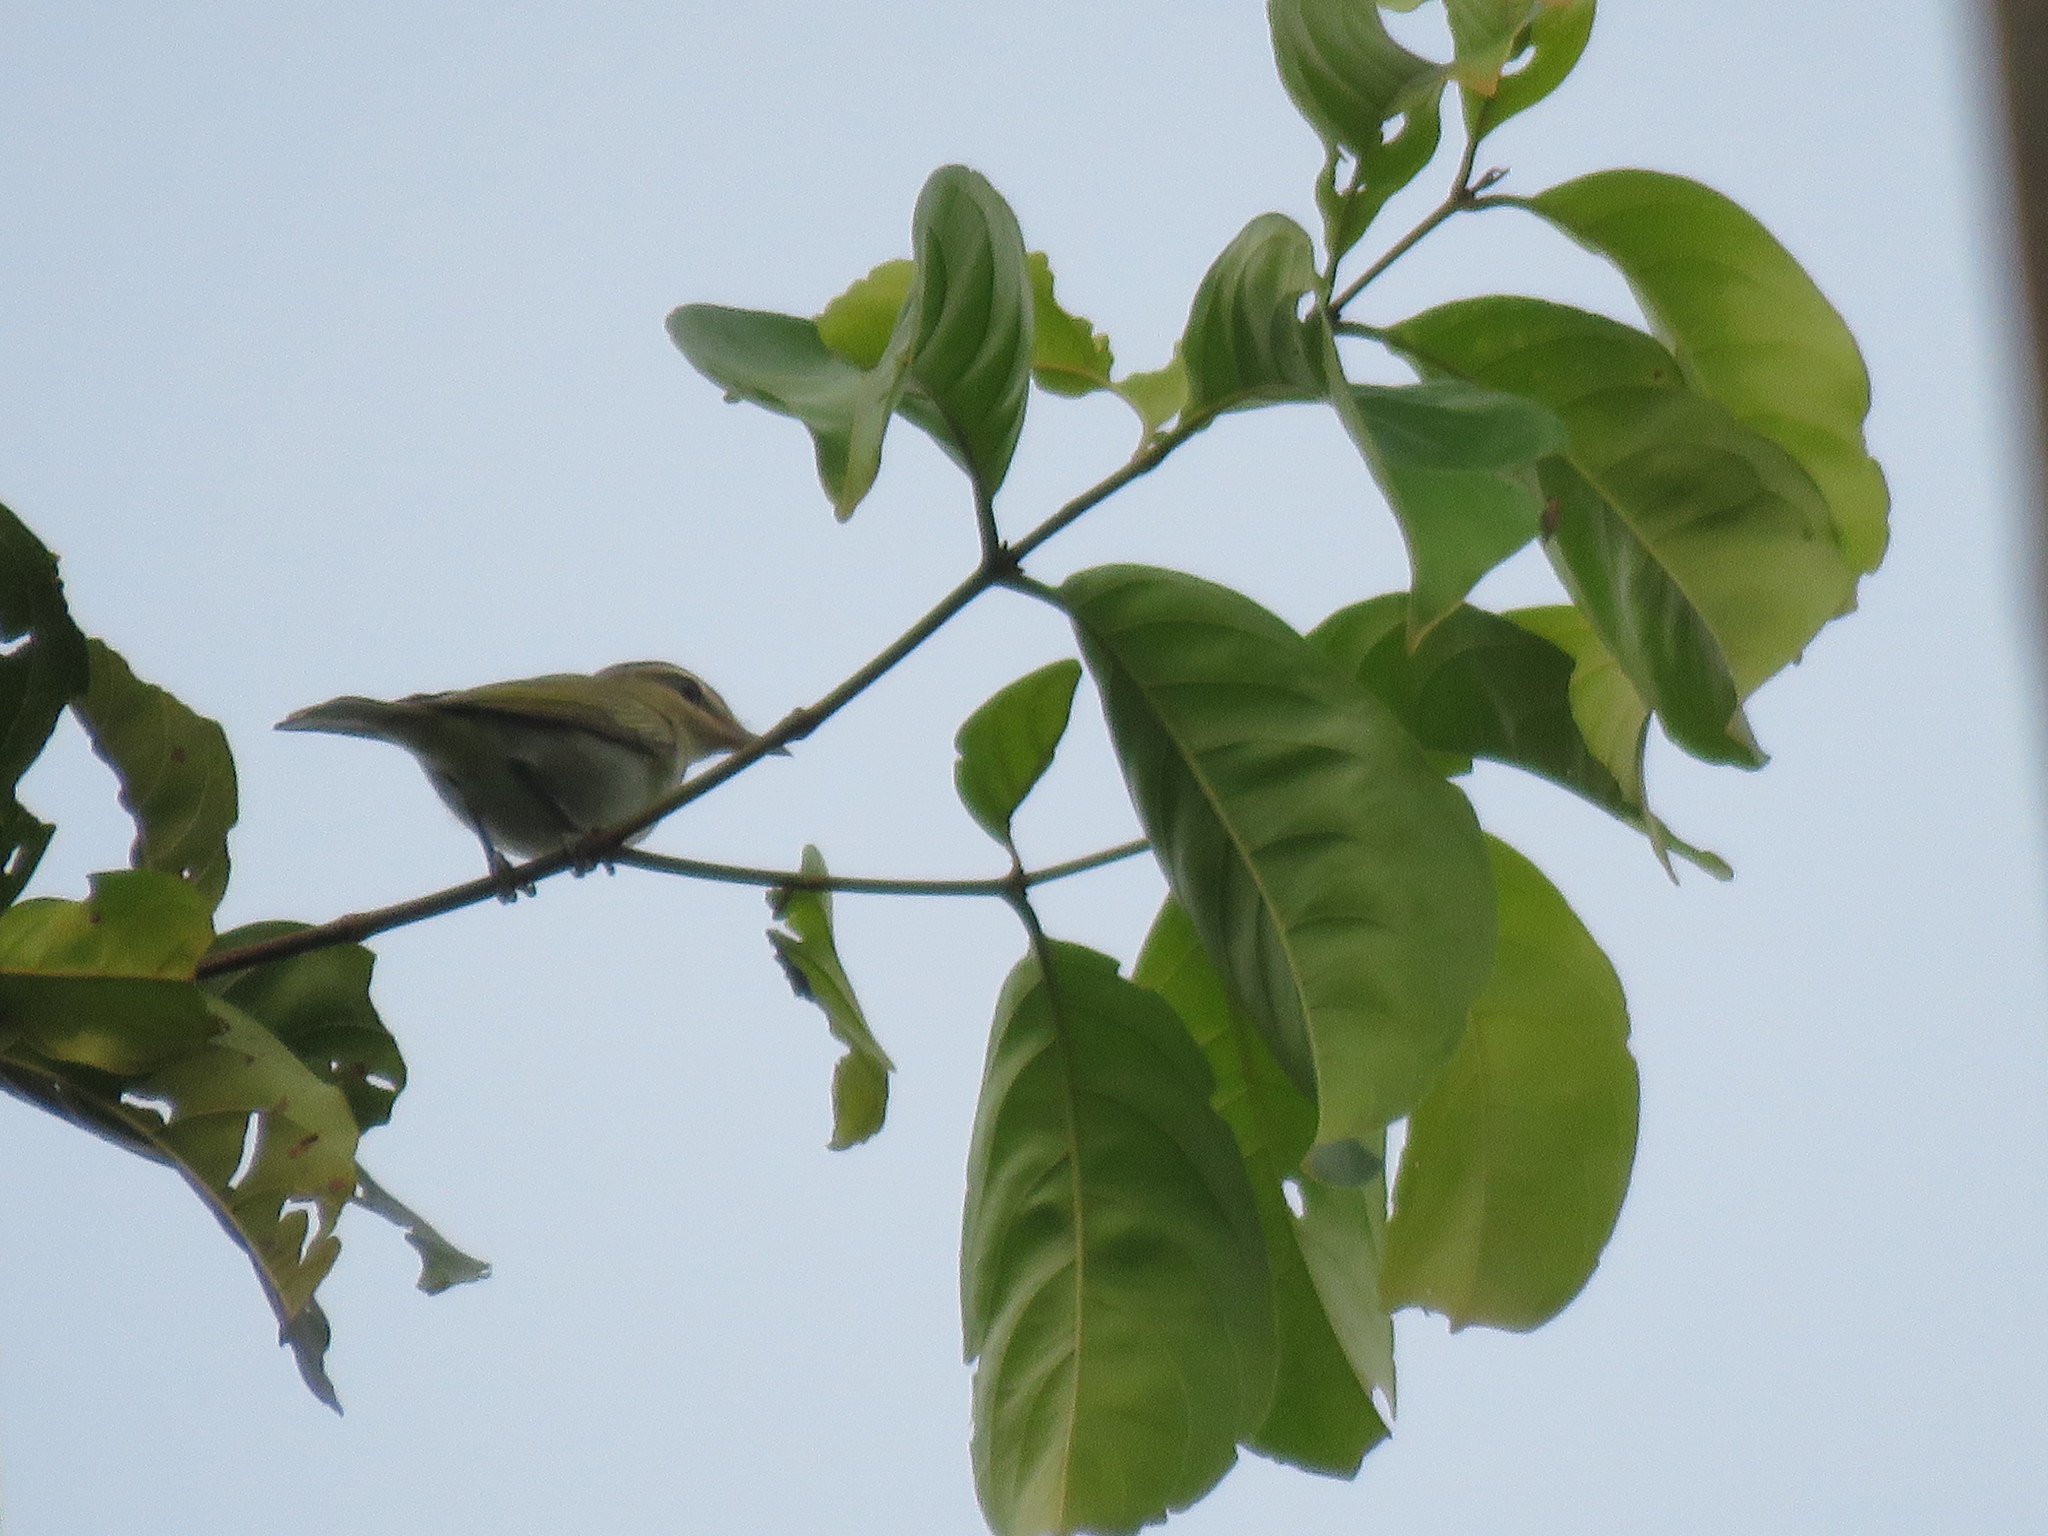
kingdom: Animalia
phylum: Chordata
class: Aves
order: Passeriformes
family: Vireonidae
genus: Vireo
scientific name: Vireo olivaceus
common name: Red-eyed vireo
